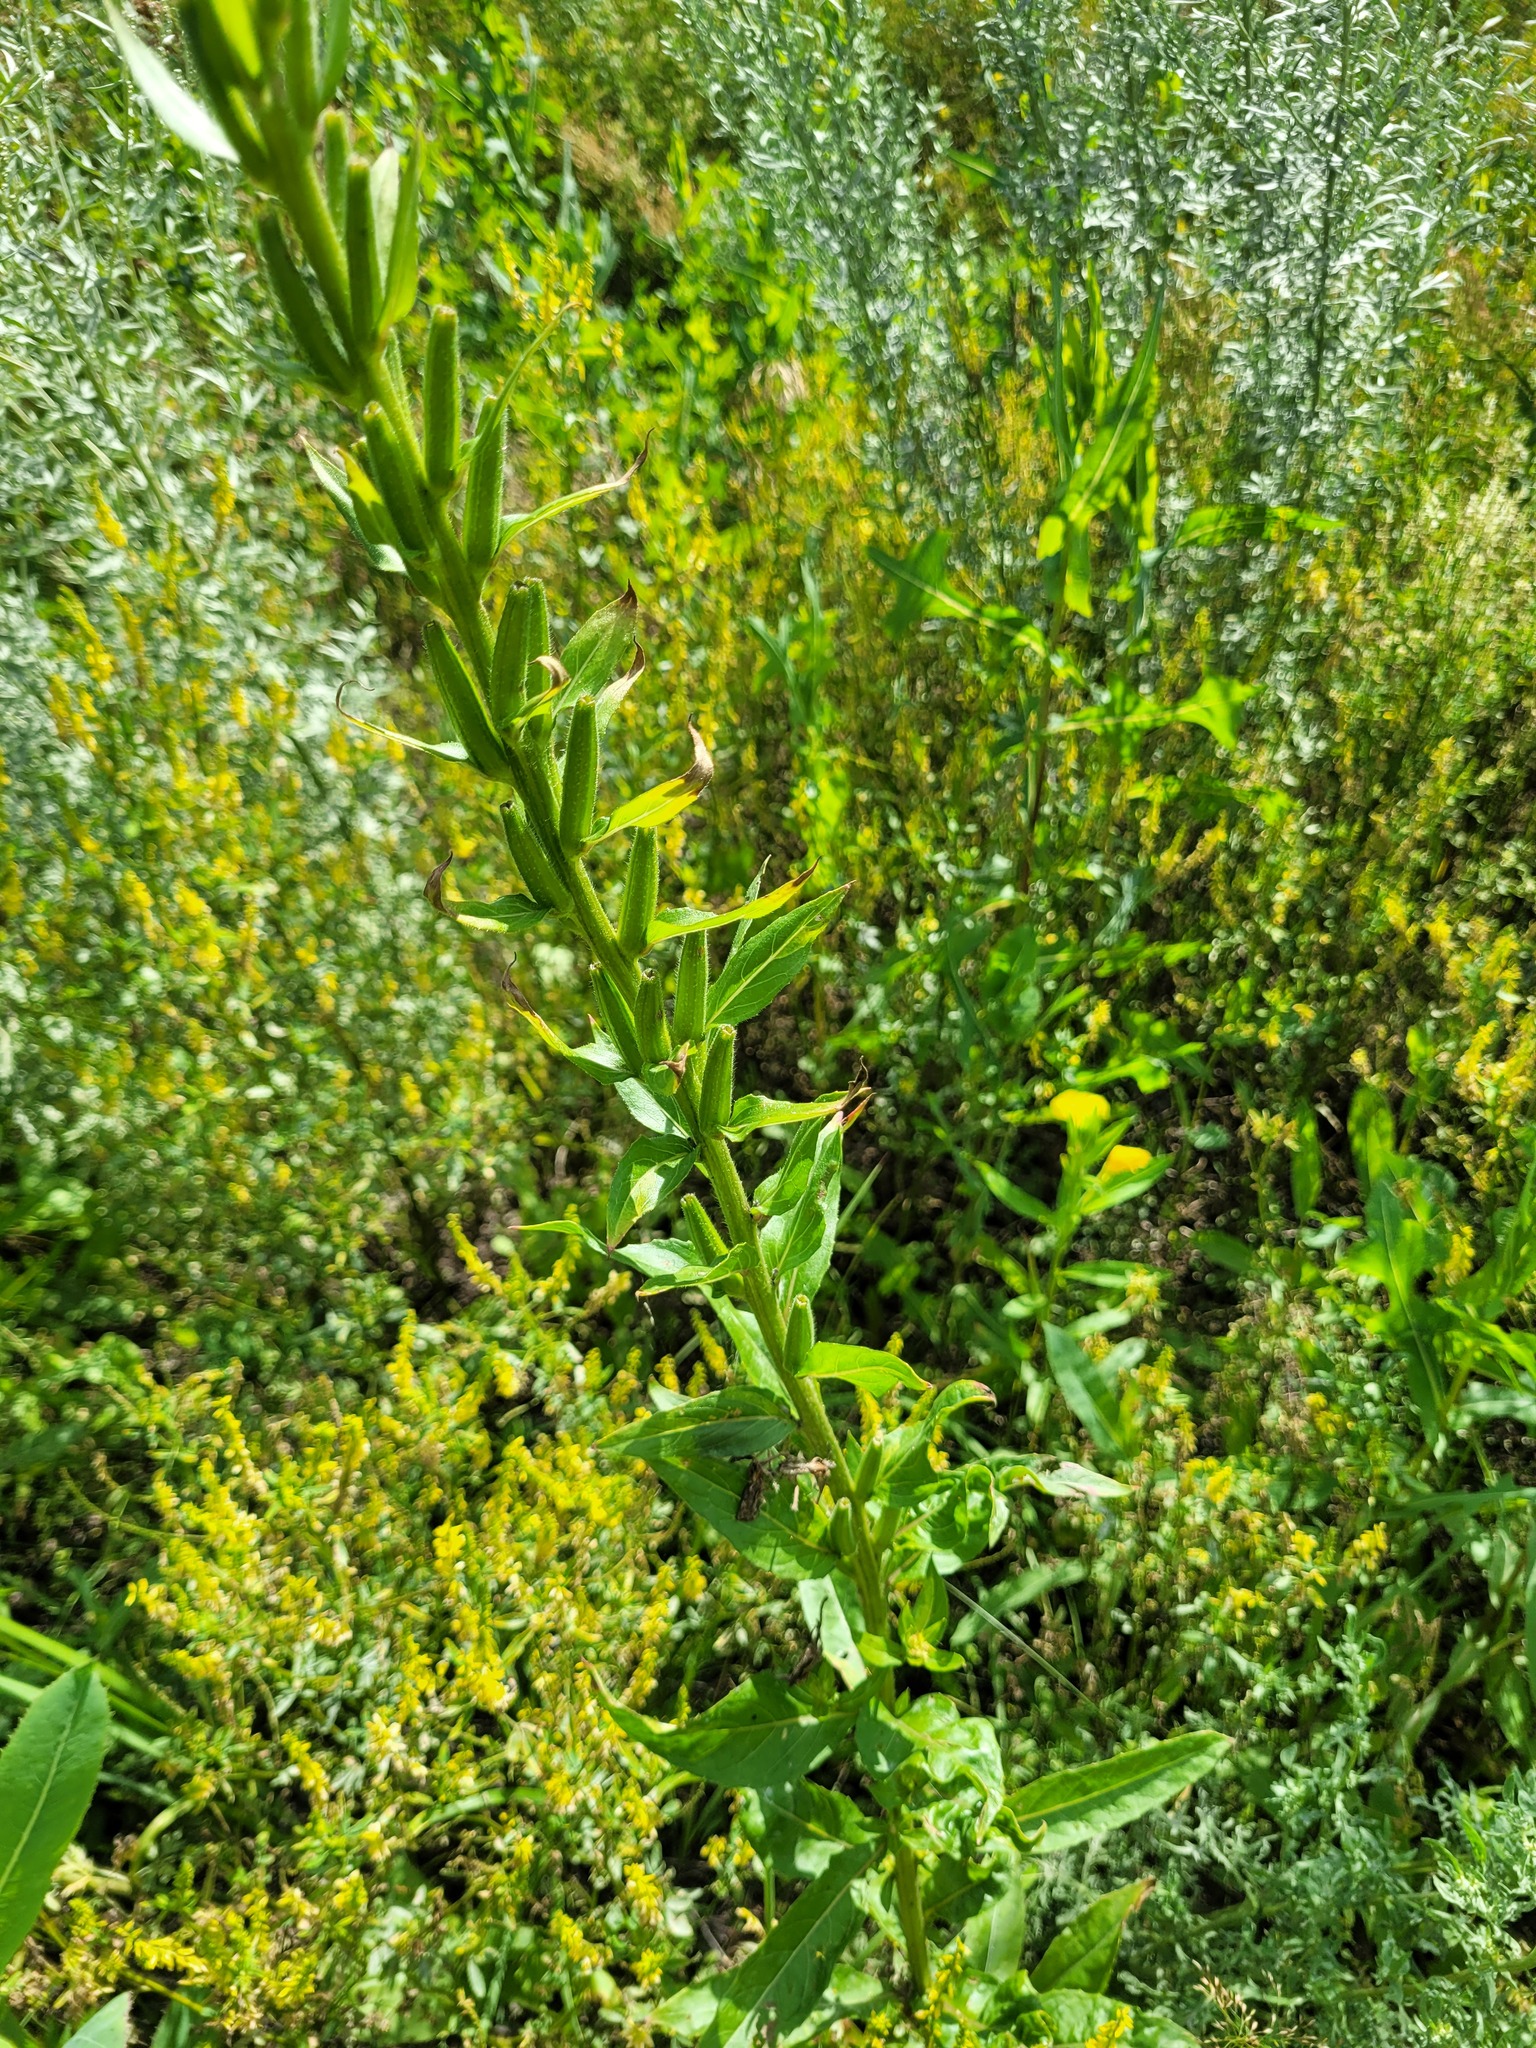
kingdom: Plantae
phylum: Tracheophyta
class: Magnoliopsida
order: Myrtales
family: Onagraceae
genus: Oenothera
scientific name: Oenothera biennis
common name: Common evening-primrose
